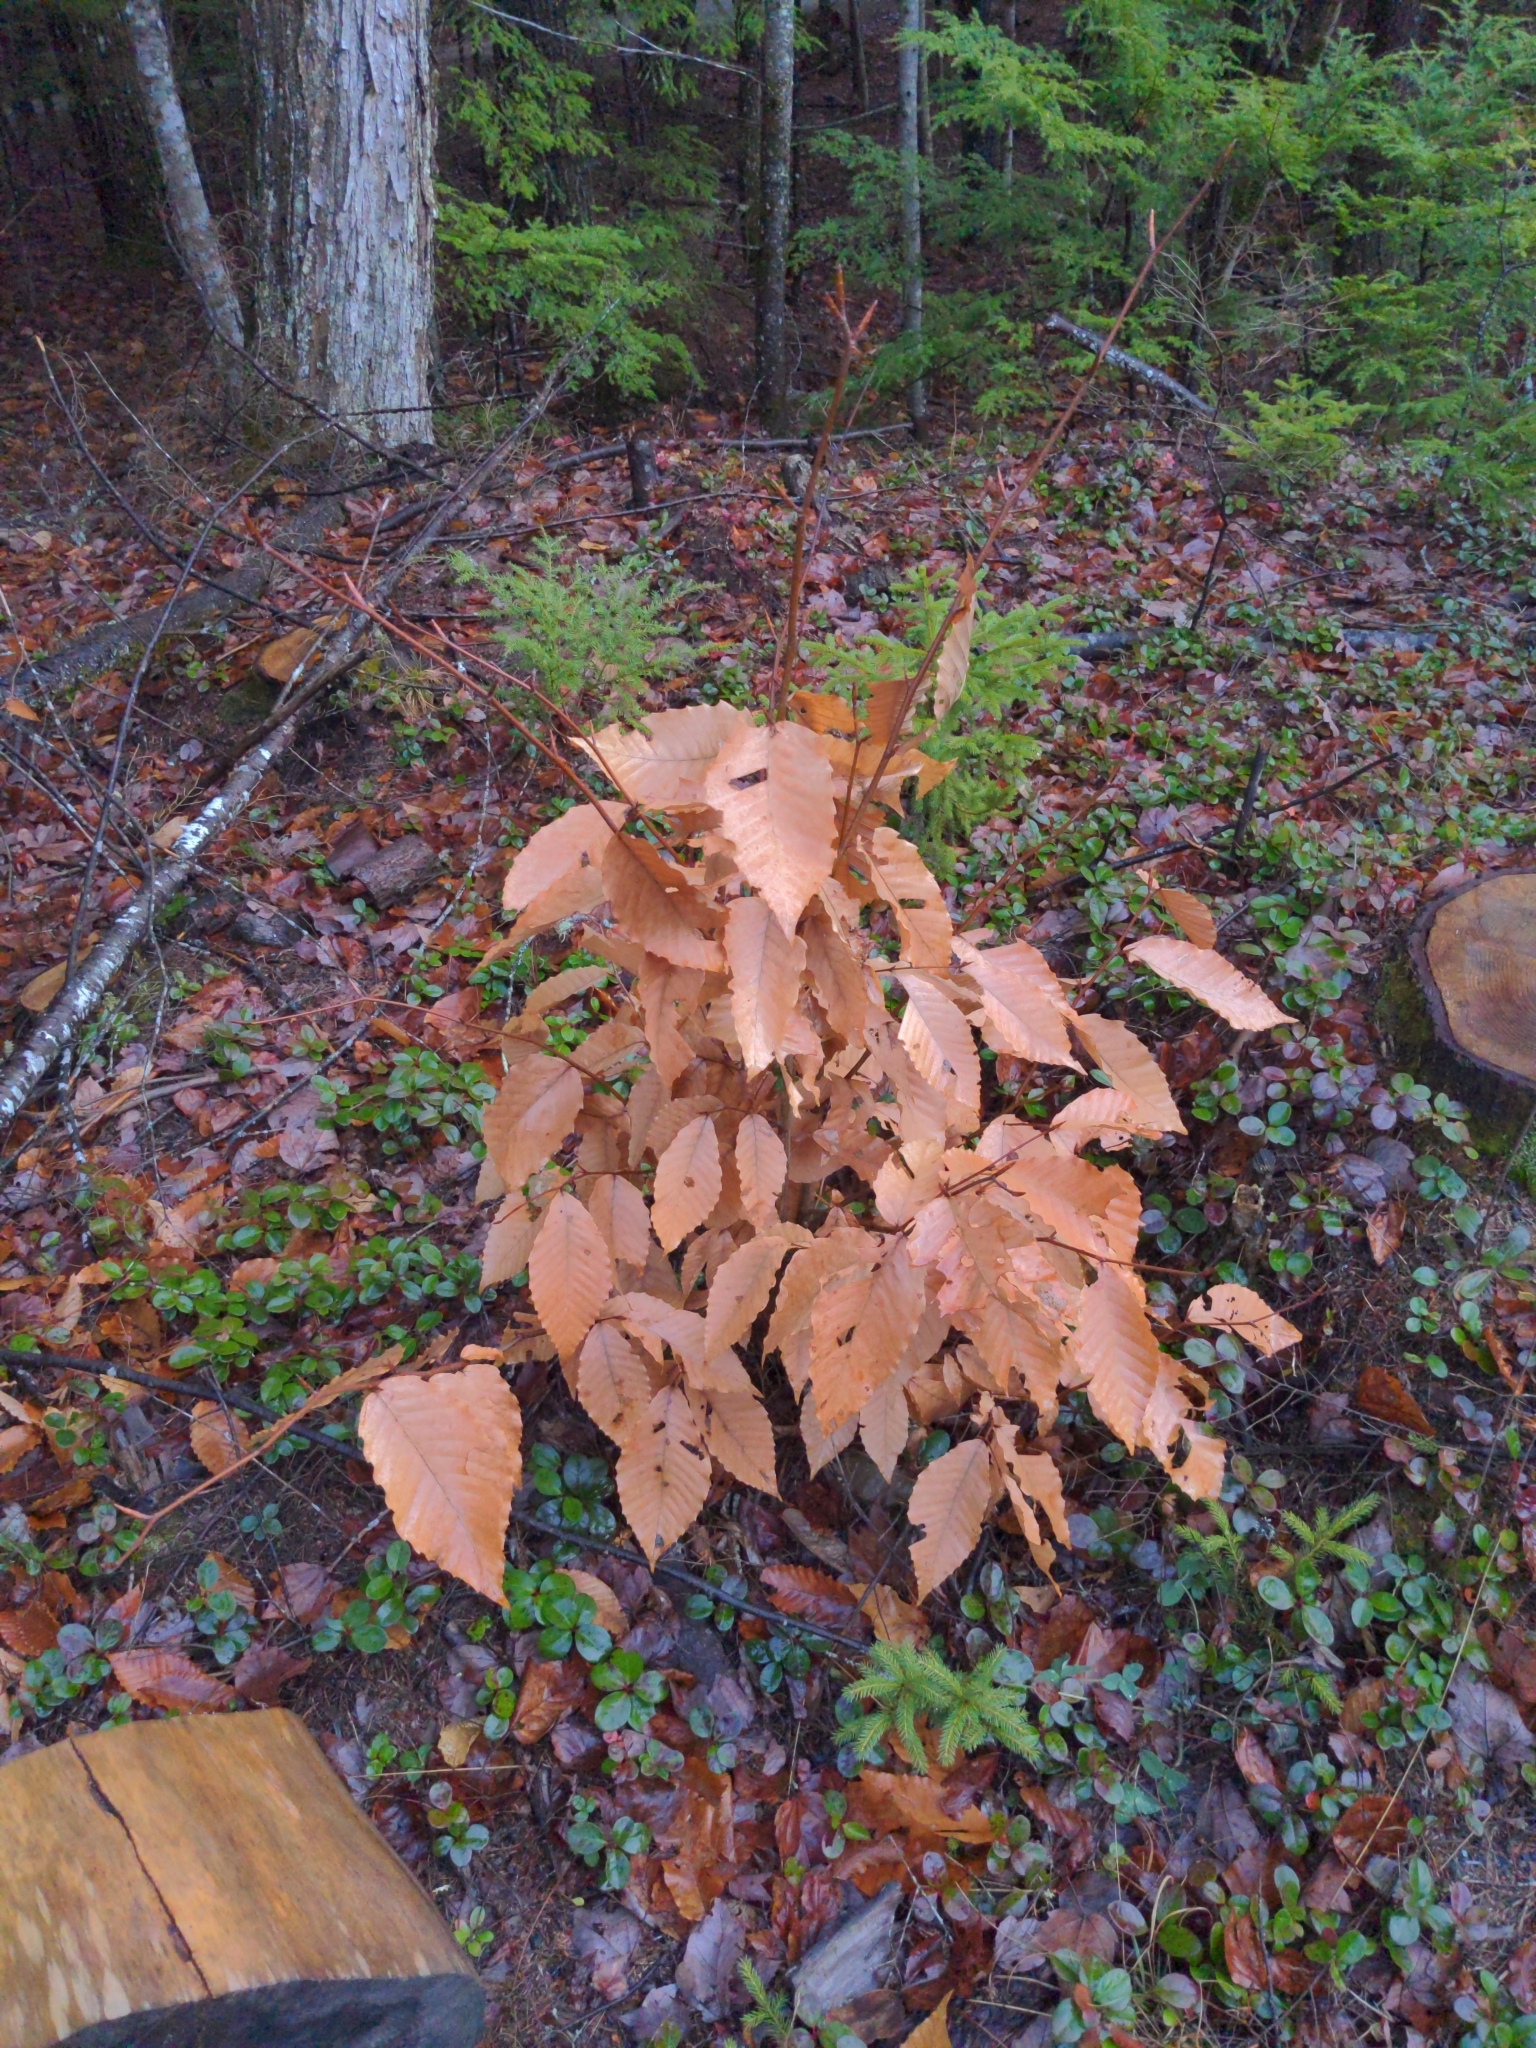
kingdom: Plantae
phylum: Tracheophyta
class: Magnoliopsida
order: Fagales
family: Fagaceae
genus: Fagus
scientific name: Fagus grandifolia
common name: American beech
